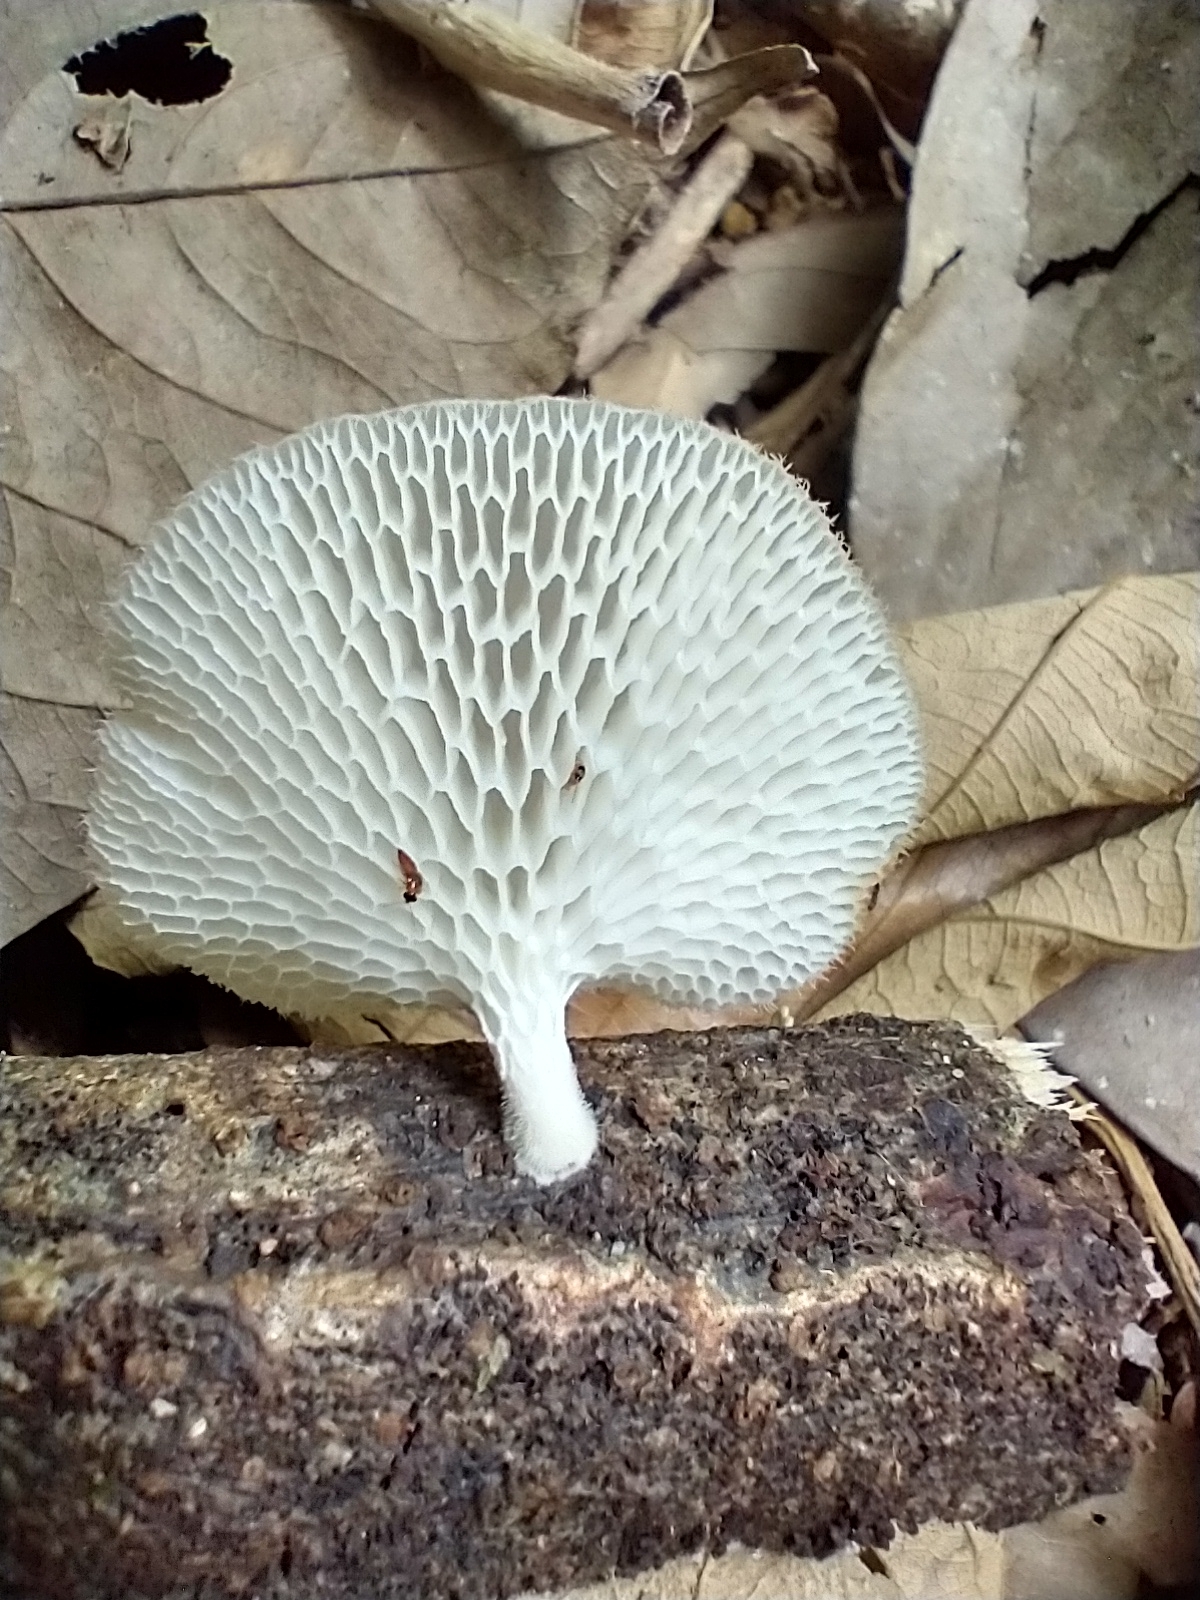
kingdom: Fungi
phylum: Basidiomycota
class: Agaricomycetes
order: Polyporales
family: Polyporaceae
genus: Favolus
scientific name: Favolus tenuiculus
